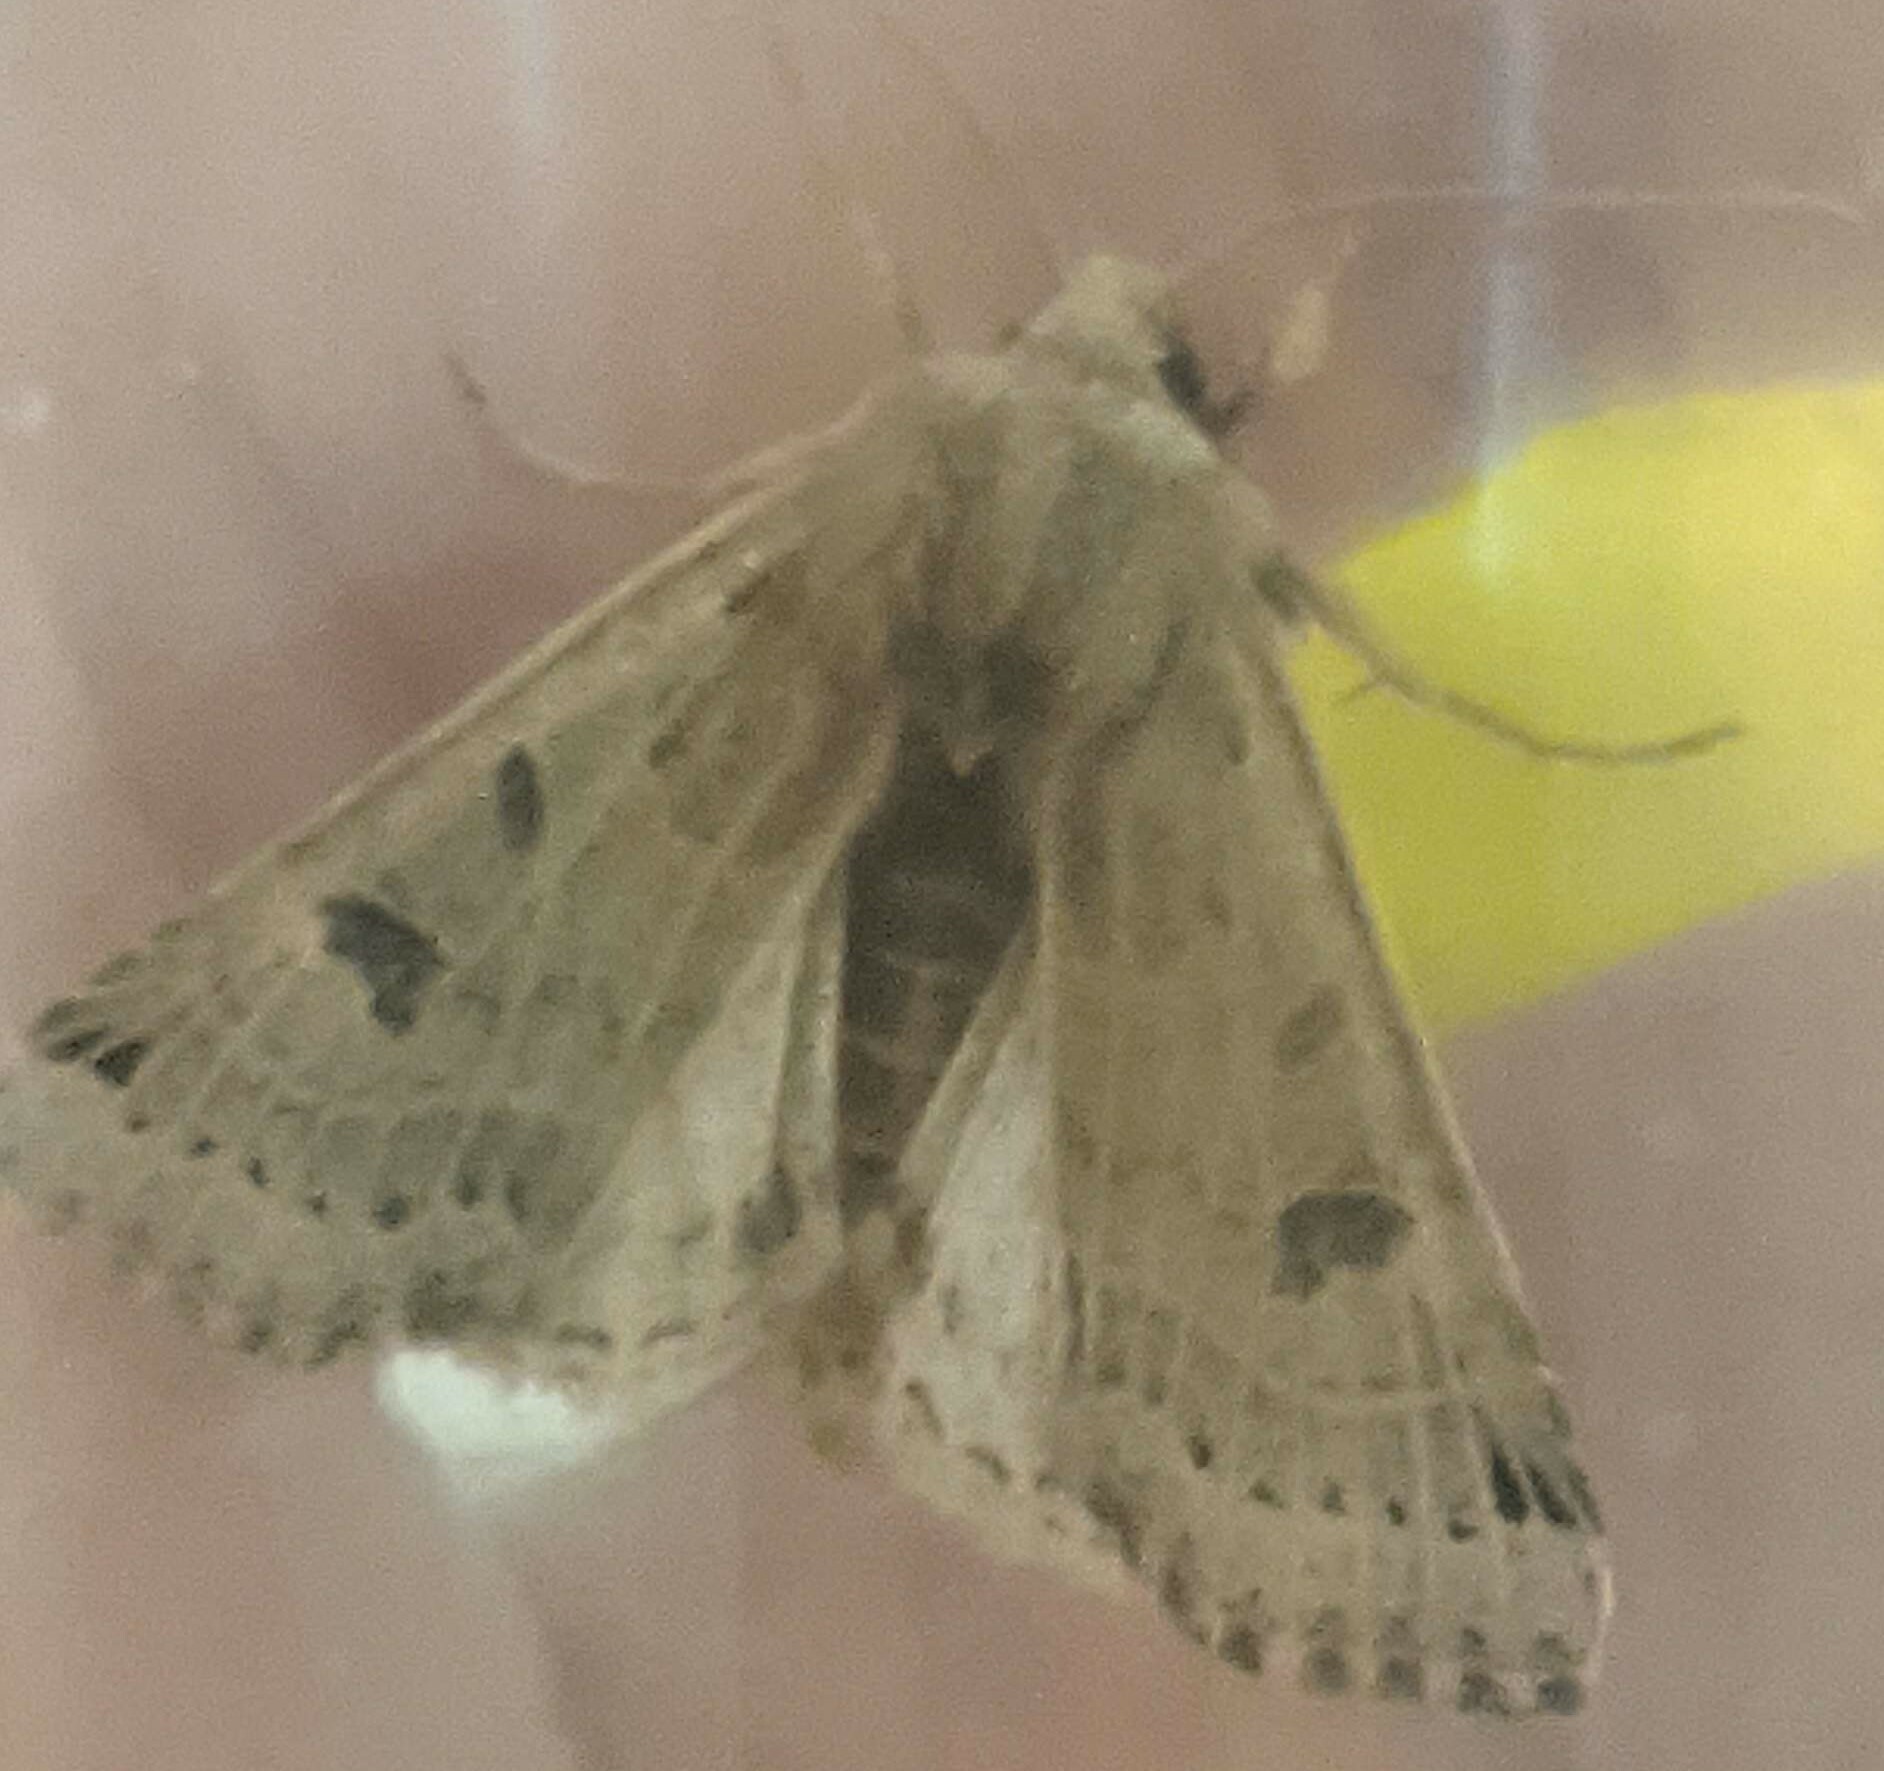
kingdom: Animalia
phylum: Arthropoda
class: Insecta
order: Lepidoptera
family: Noctuidae
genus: Agrochola
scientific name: Agrochola lunosa
